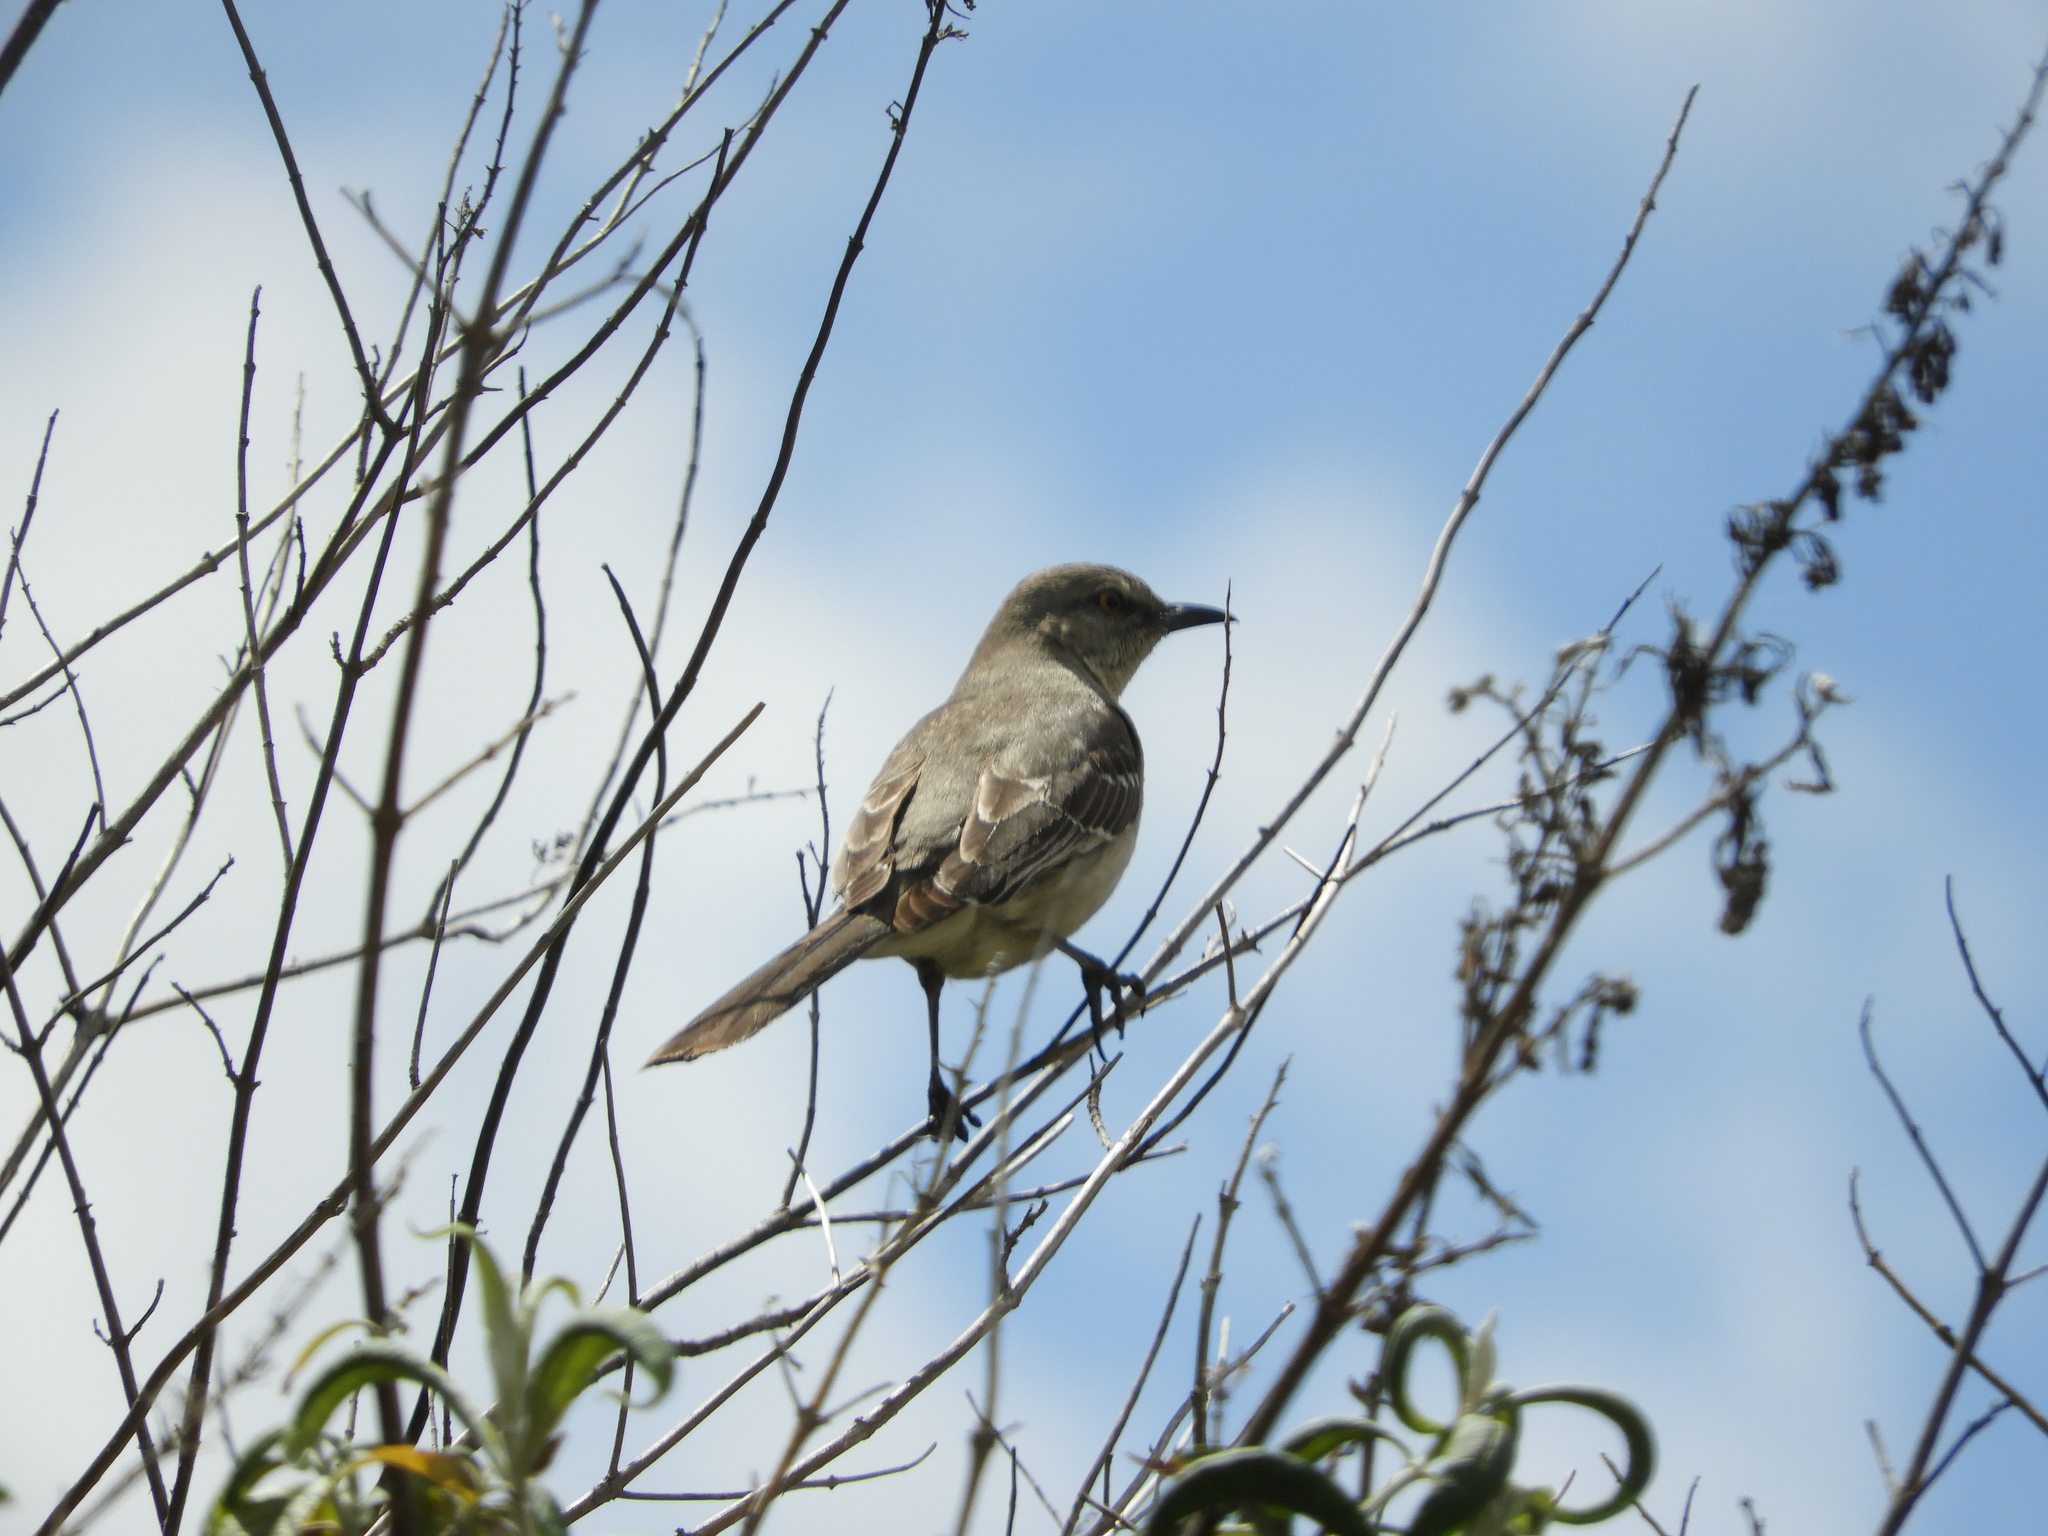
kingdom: Animalia
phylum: Chordata
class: Aves
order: Passeriformes
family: Mimidae
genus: Mimus
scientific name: Mimus polyglottos
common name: Northern mockingbird
